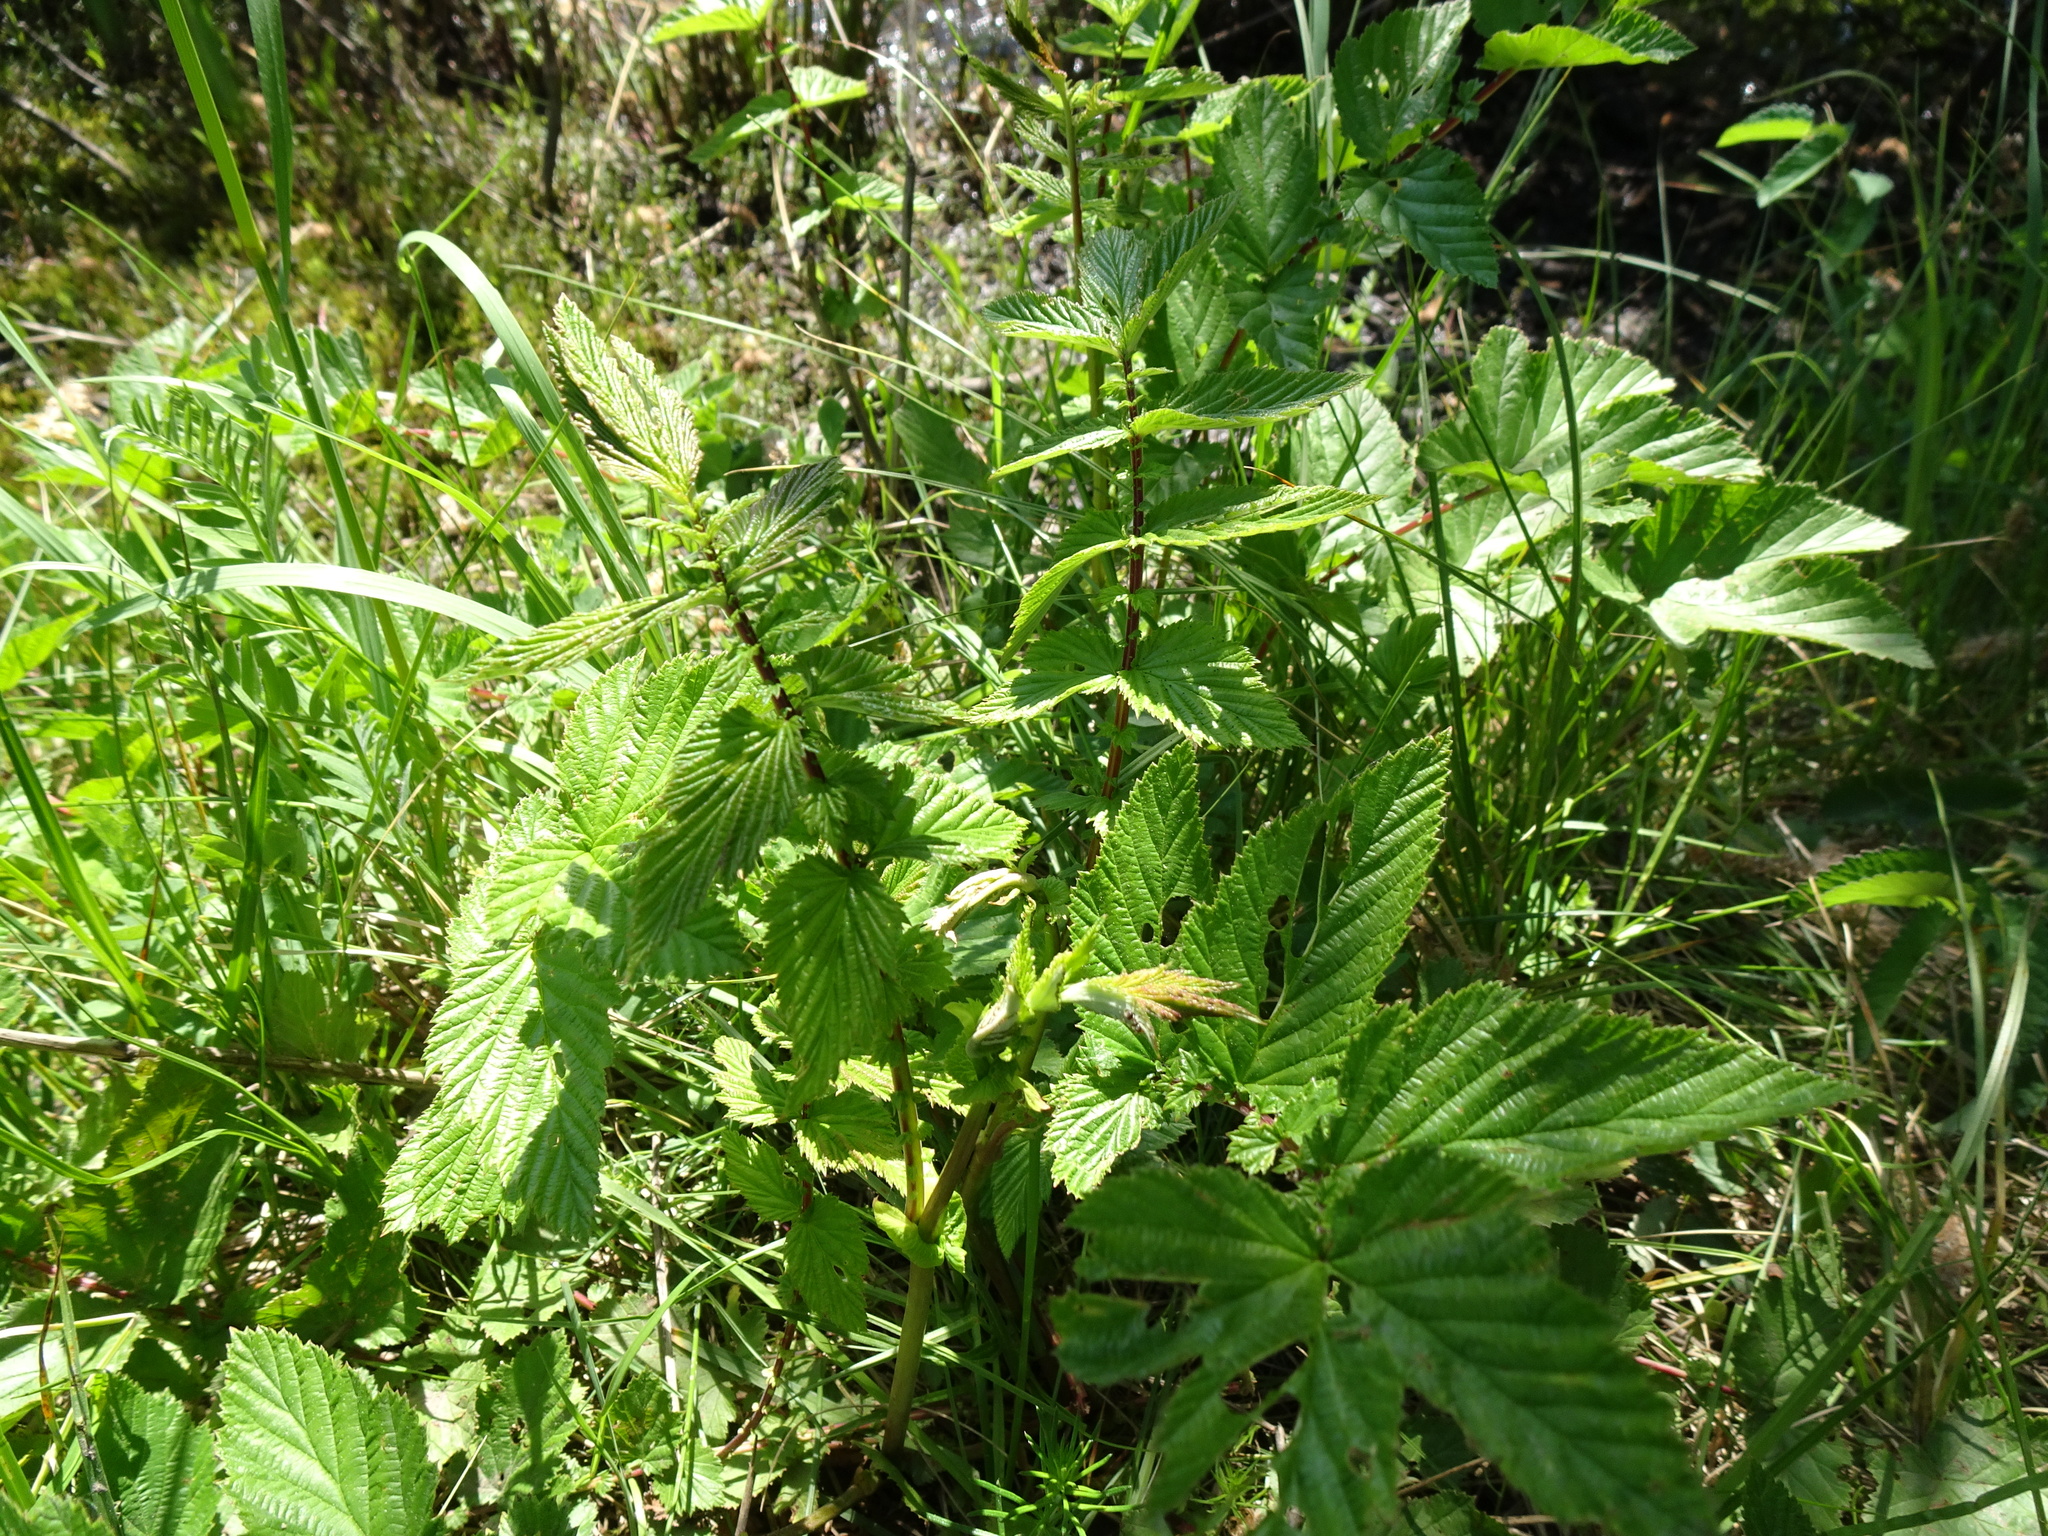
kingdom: Plantae
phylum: Tracheophyta
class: Magnoliopsida
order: Rosales
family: Rosaceae
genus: Filipendula
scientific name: Filipendula ulmaria
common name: Meadowsweet
